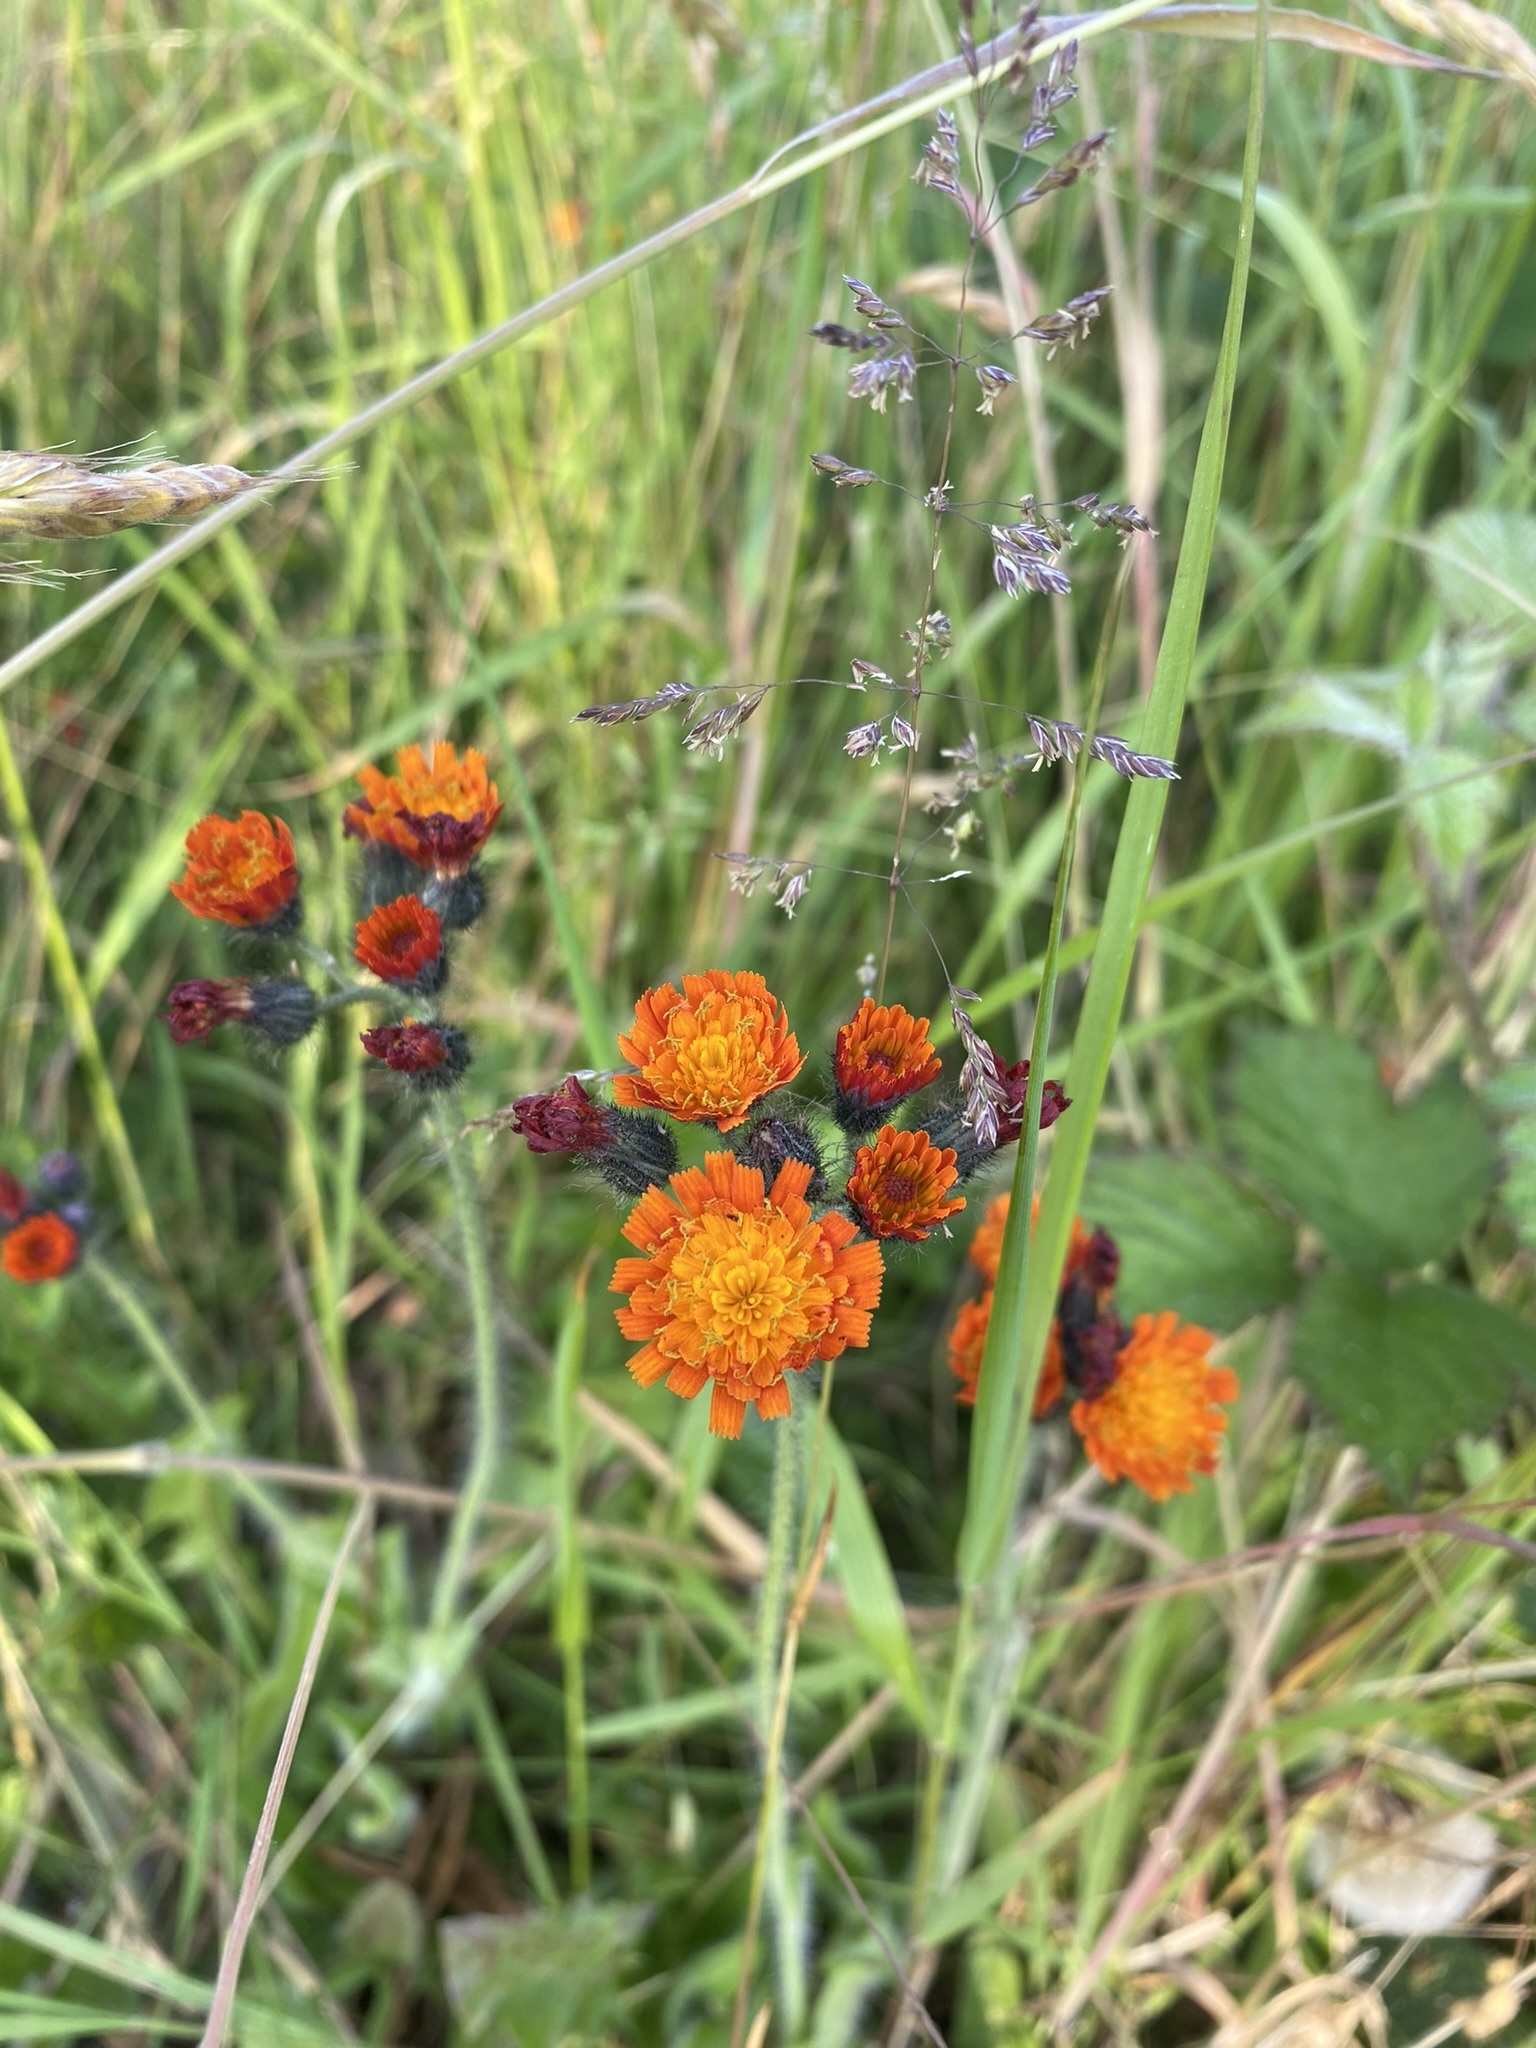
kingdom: Plantae
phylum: Tracheophyta
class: Magnoliopsida
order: Asterales
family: Asteraceae
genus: Pilosella
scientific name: Pilosella aurantiaca
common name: Fox-and-cubs
